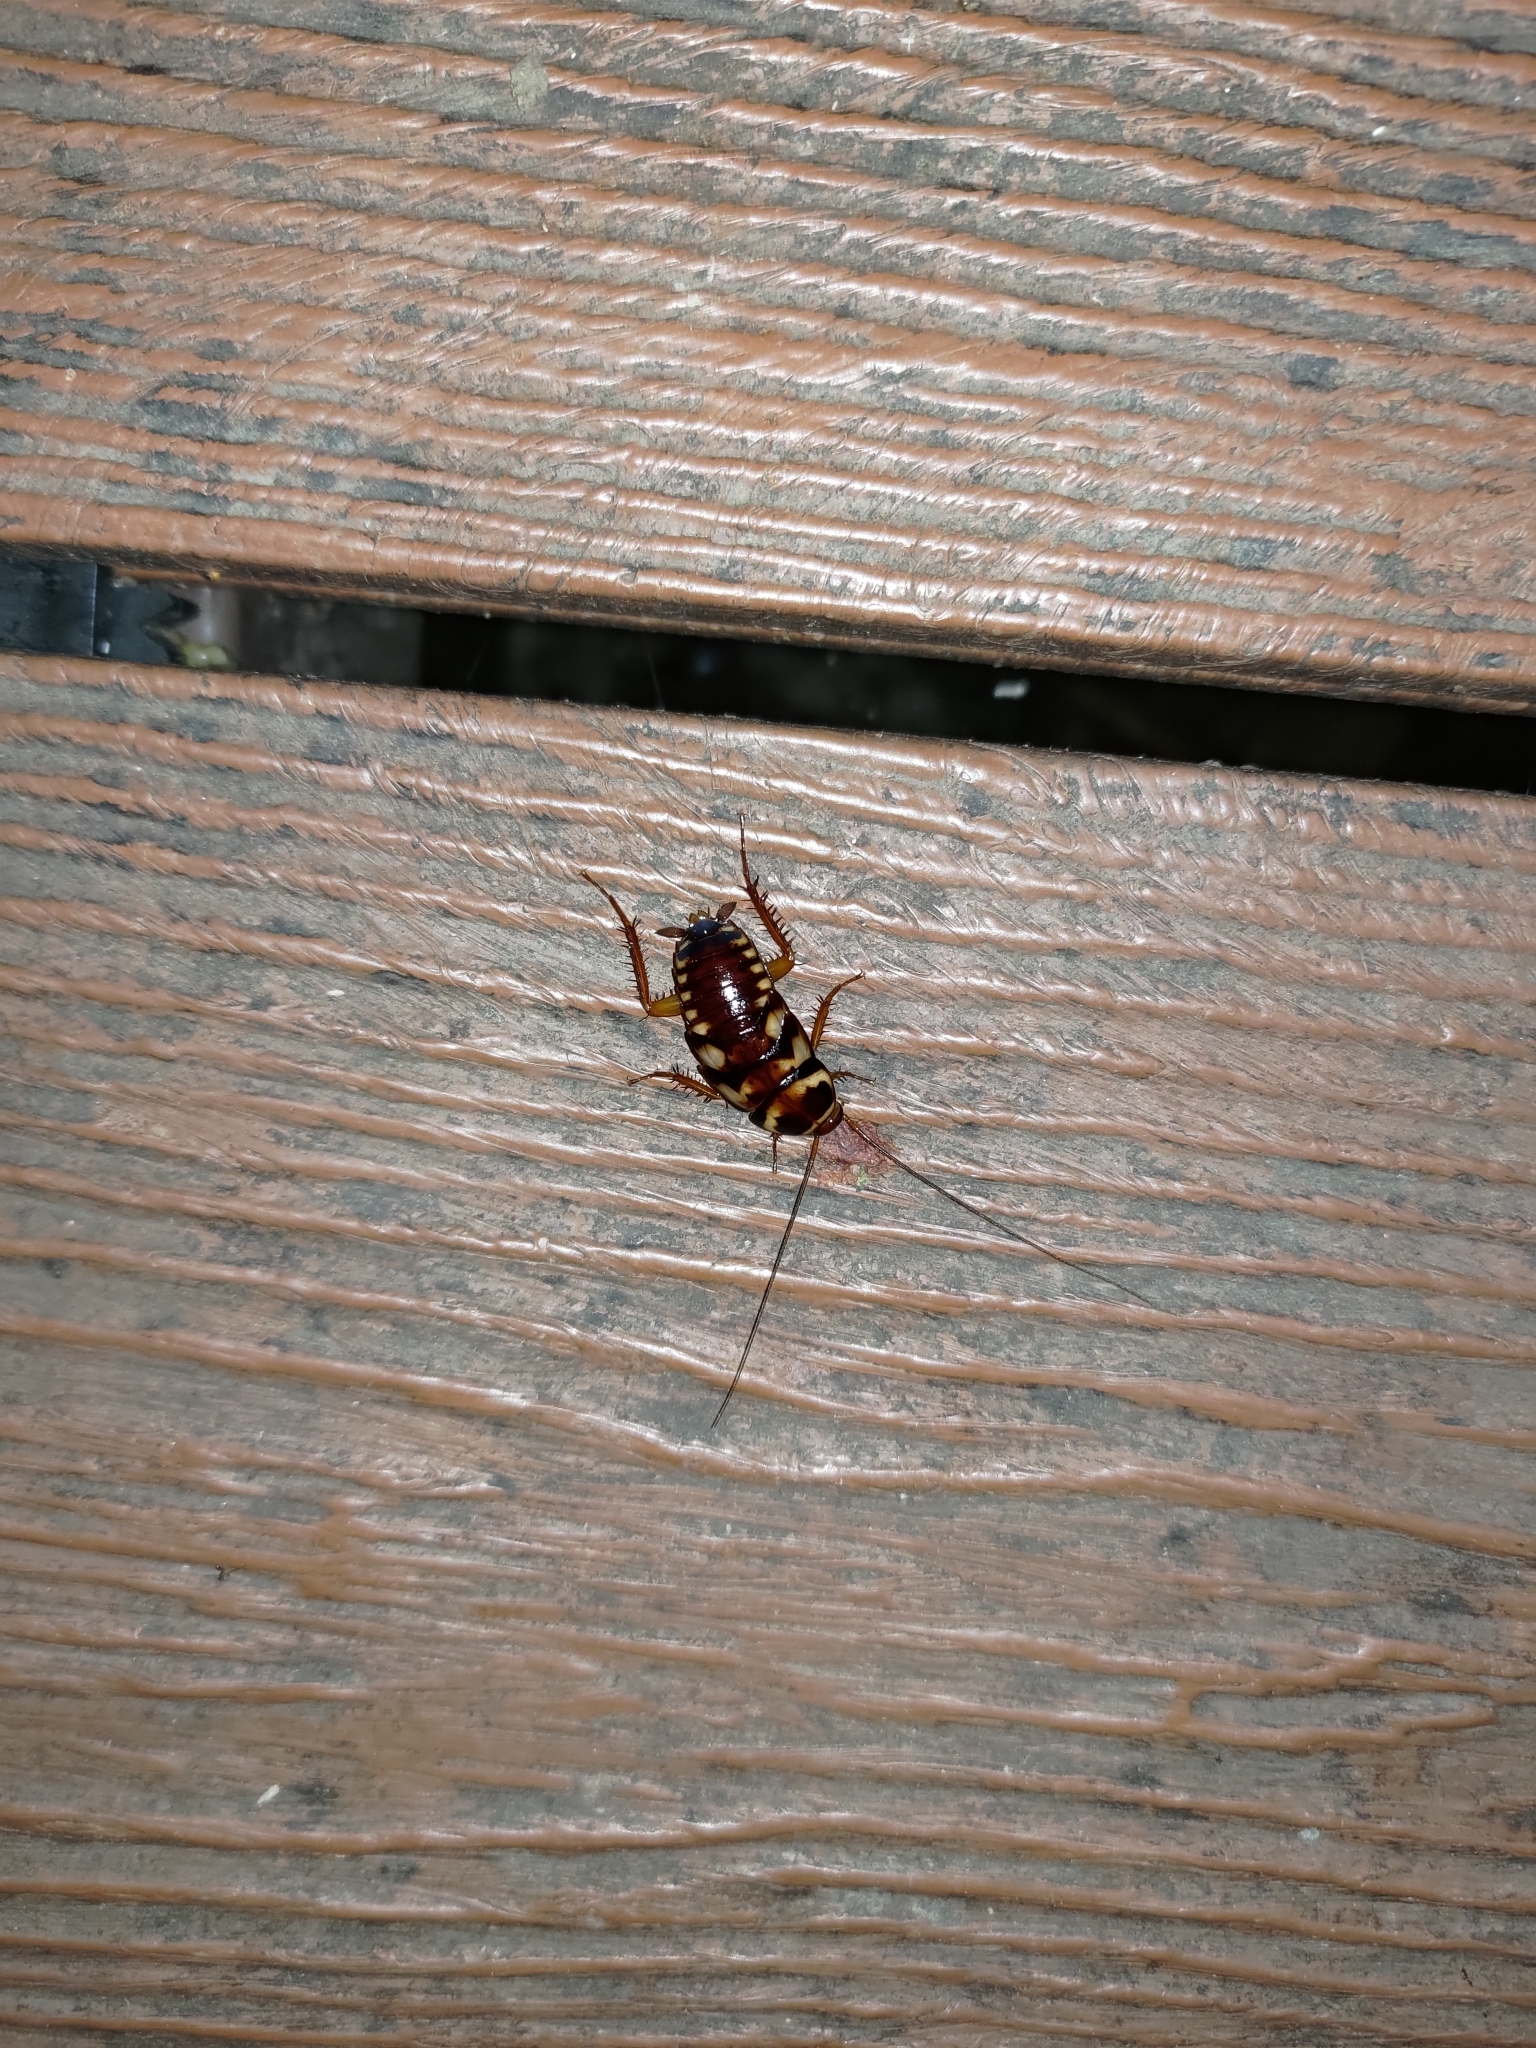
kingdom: Animalia
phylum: Arthropoda
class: Insecta
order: Blattodea
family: Blattidae
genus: Periplaneta
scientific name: Periplaneta australasiae
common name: Australian cockroach
